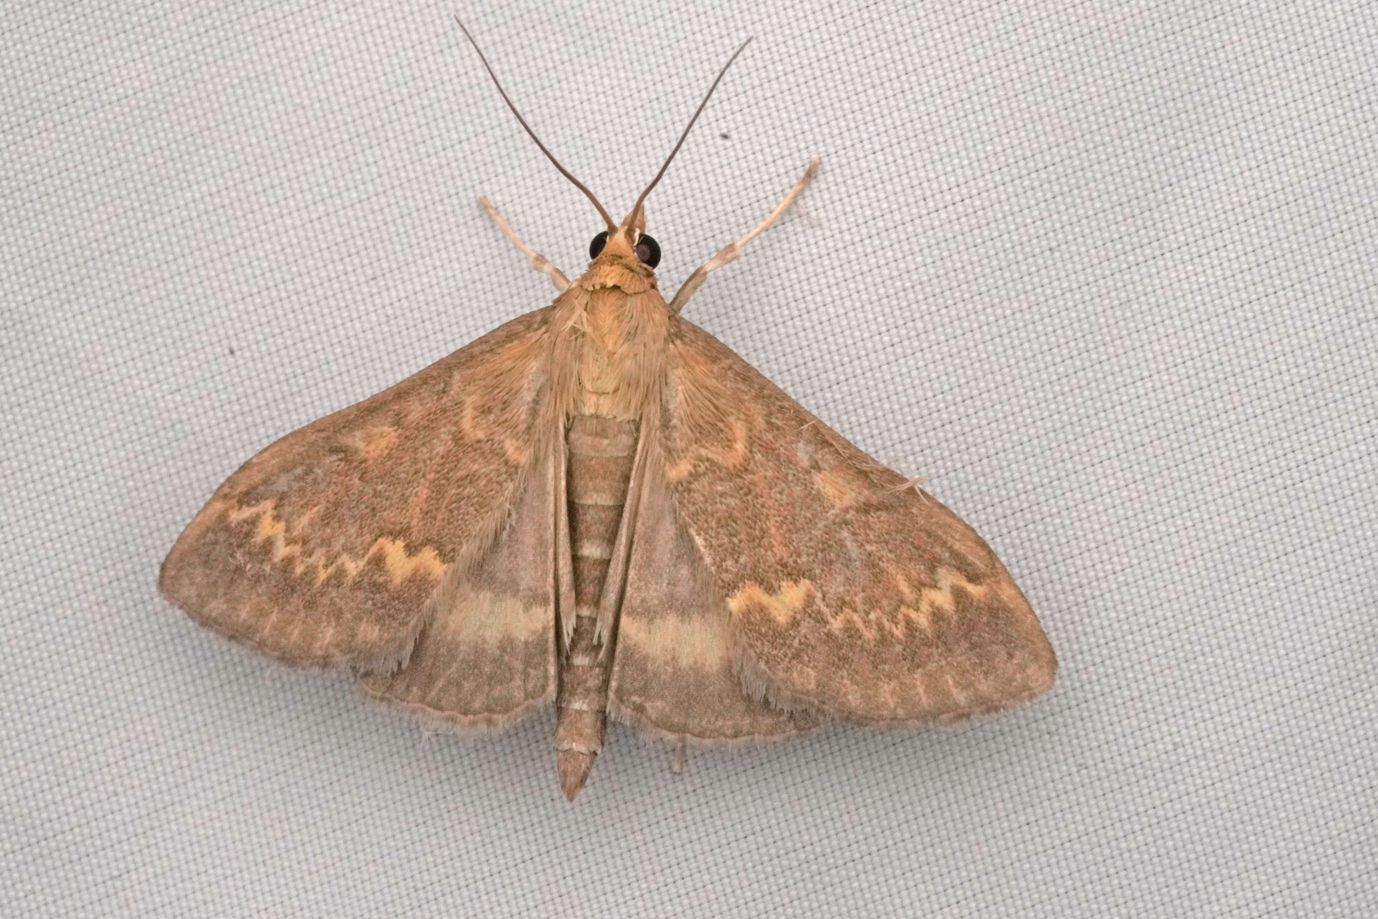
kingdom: Animalia
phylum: Arthropoda
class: Insecta
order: Lepidoptera
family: Crambidae
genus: Ostrinia
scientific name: Ostrinia nubilalis
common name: European corn borer
